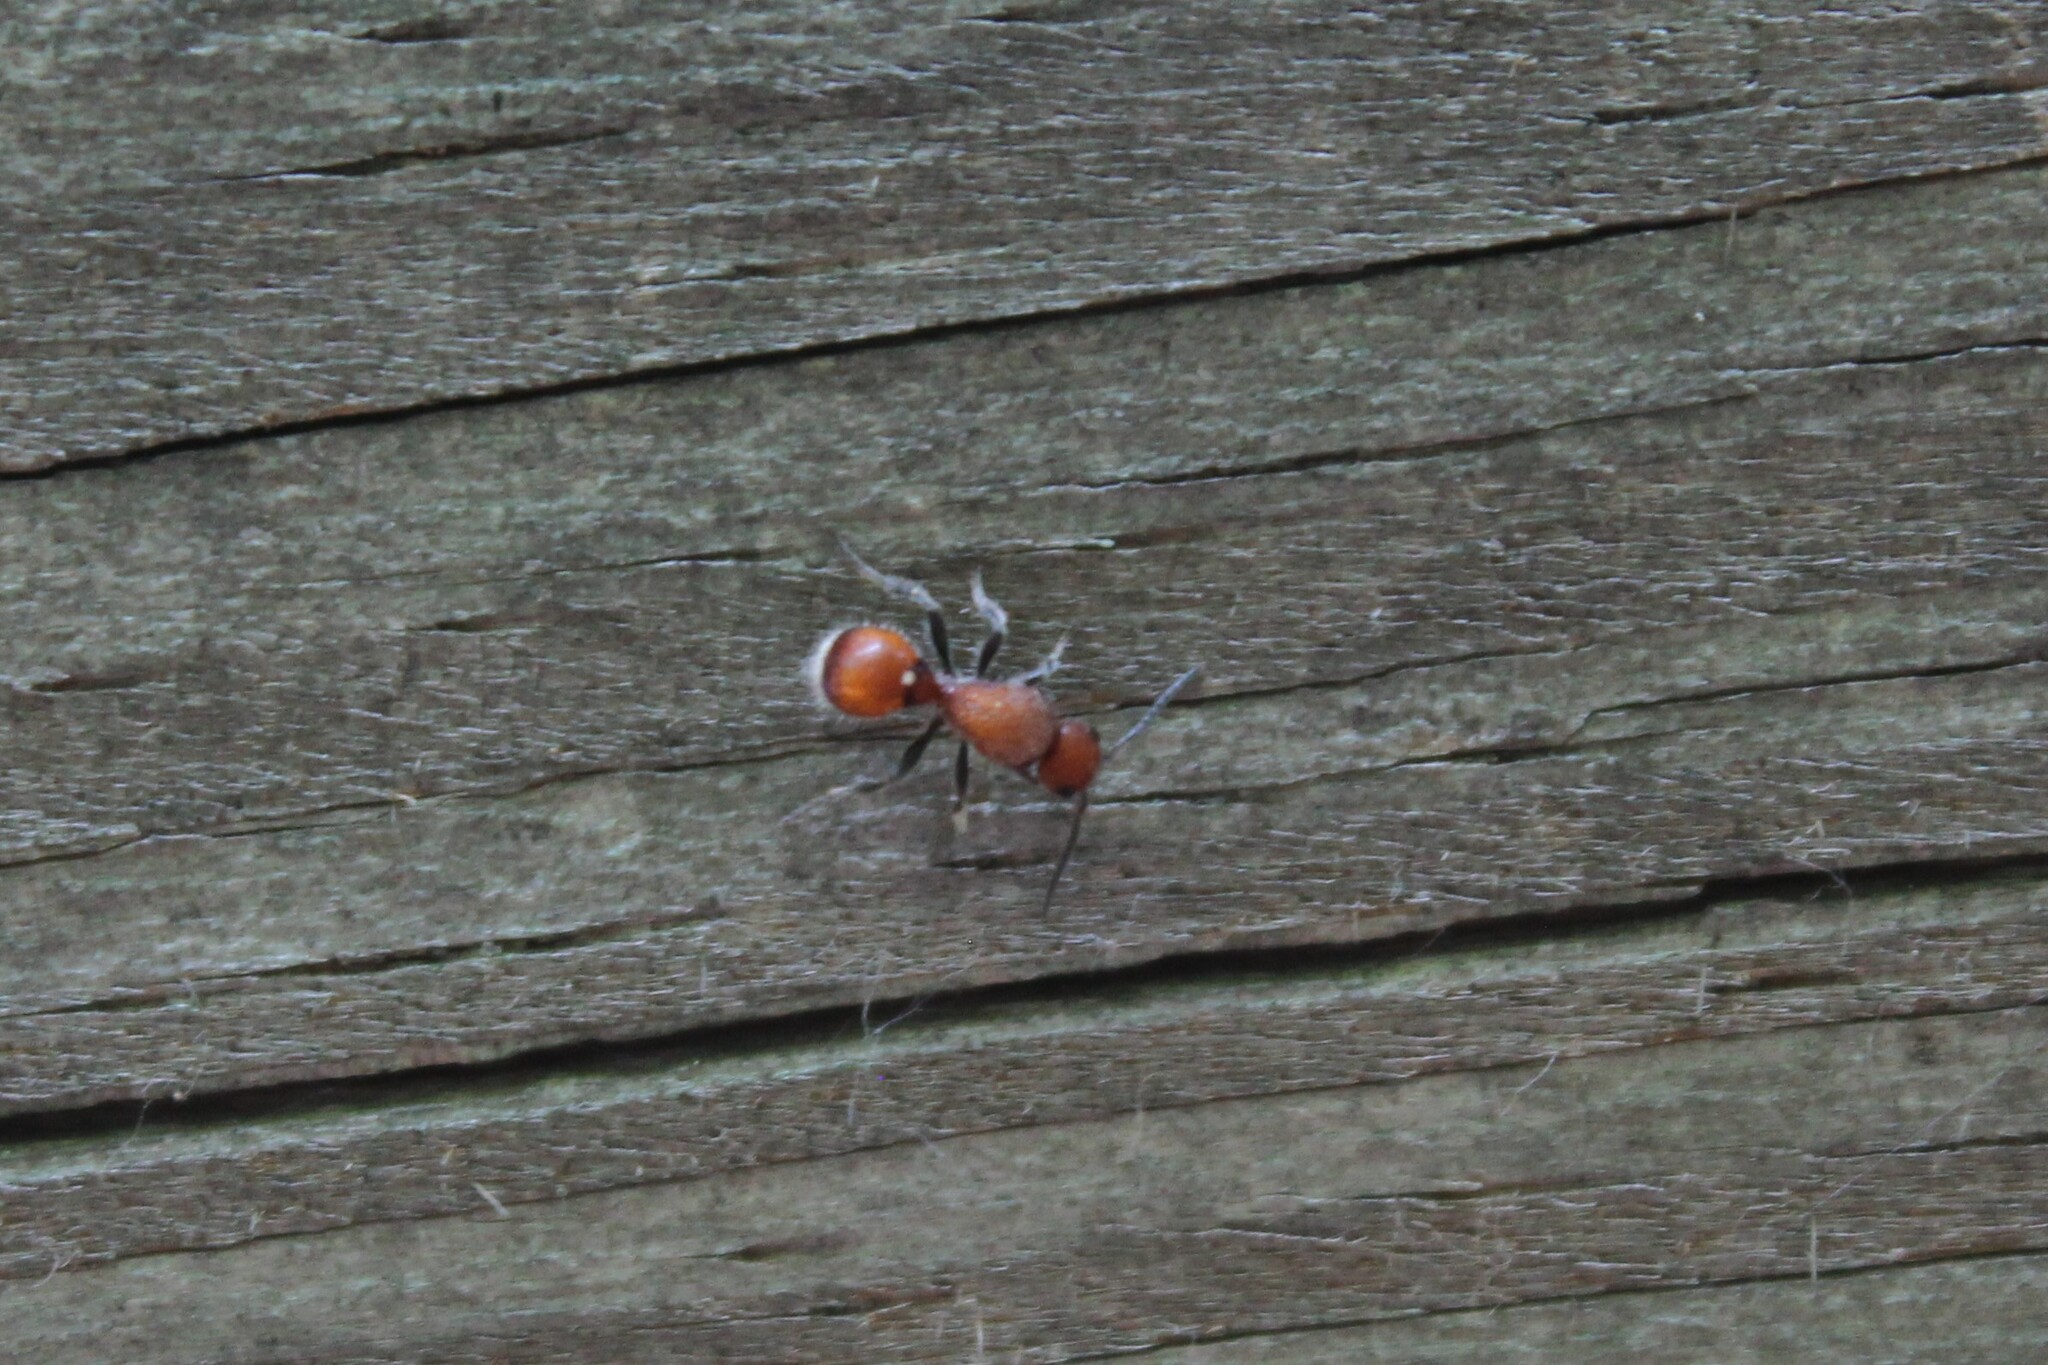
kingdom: Animalia
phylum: Arthropoda
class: Insecta
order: Hymenoptera
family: Mutillidae
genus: Sphaeropthalma
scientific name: Sphaeropthalma
